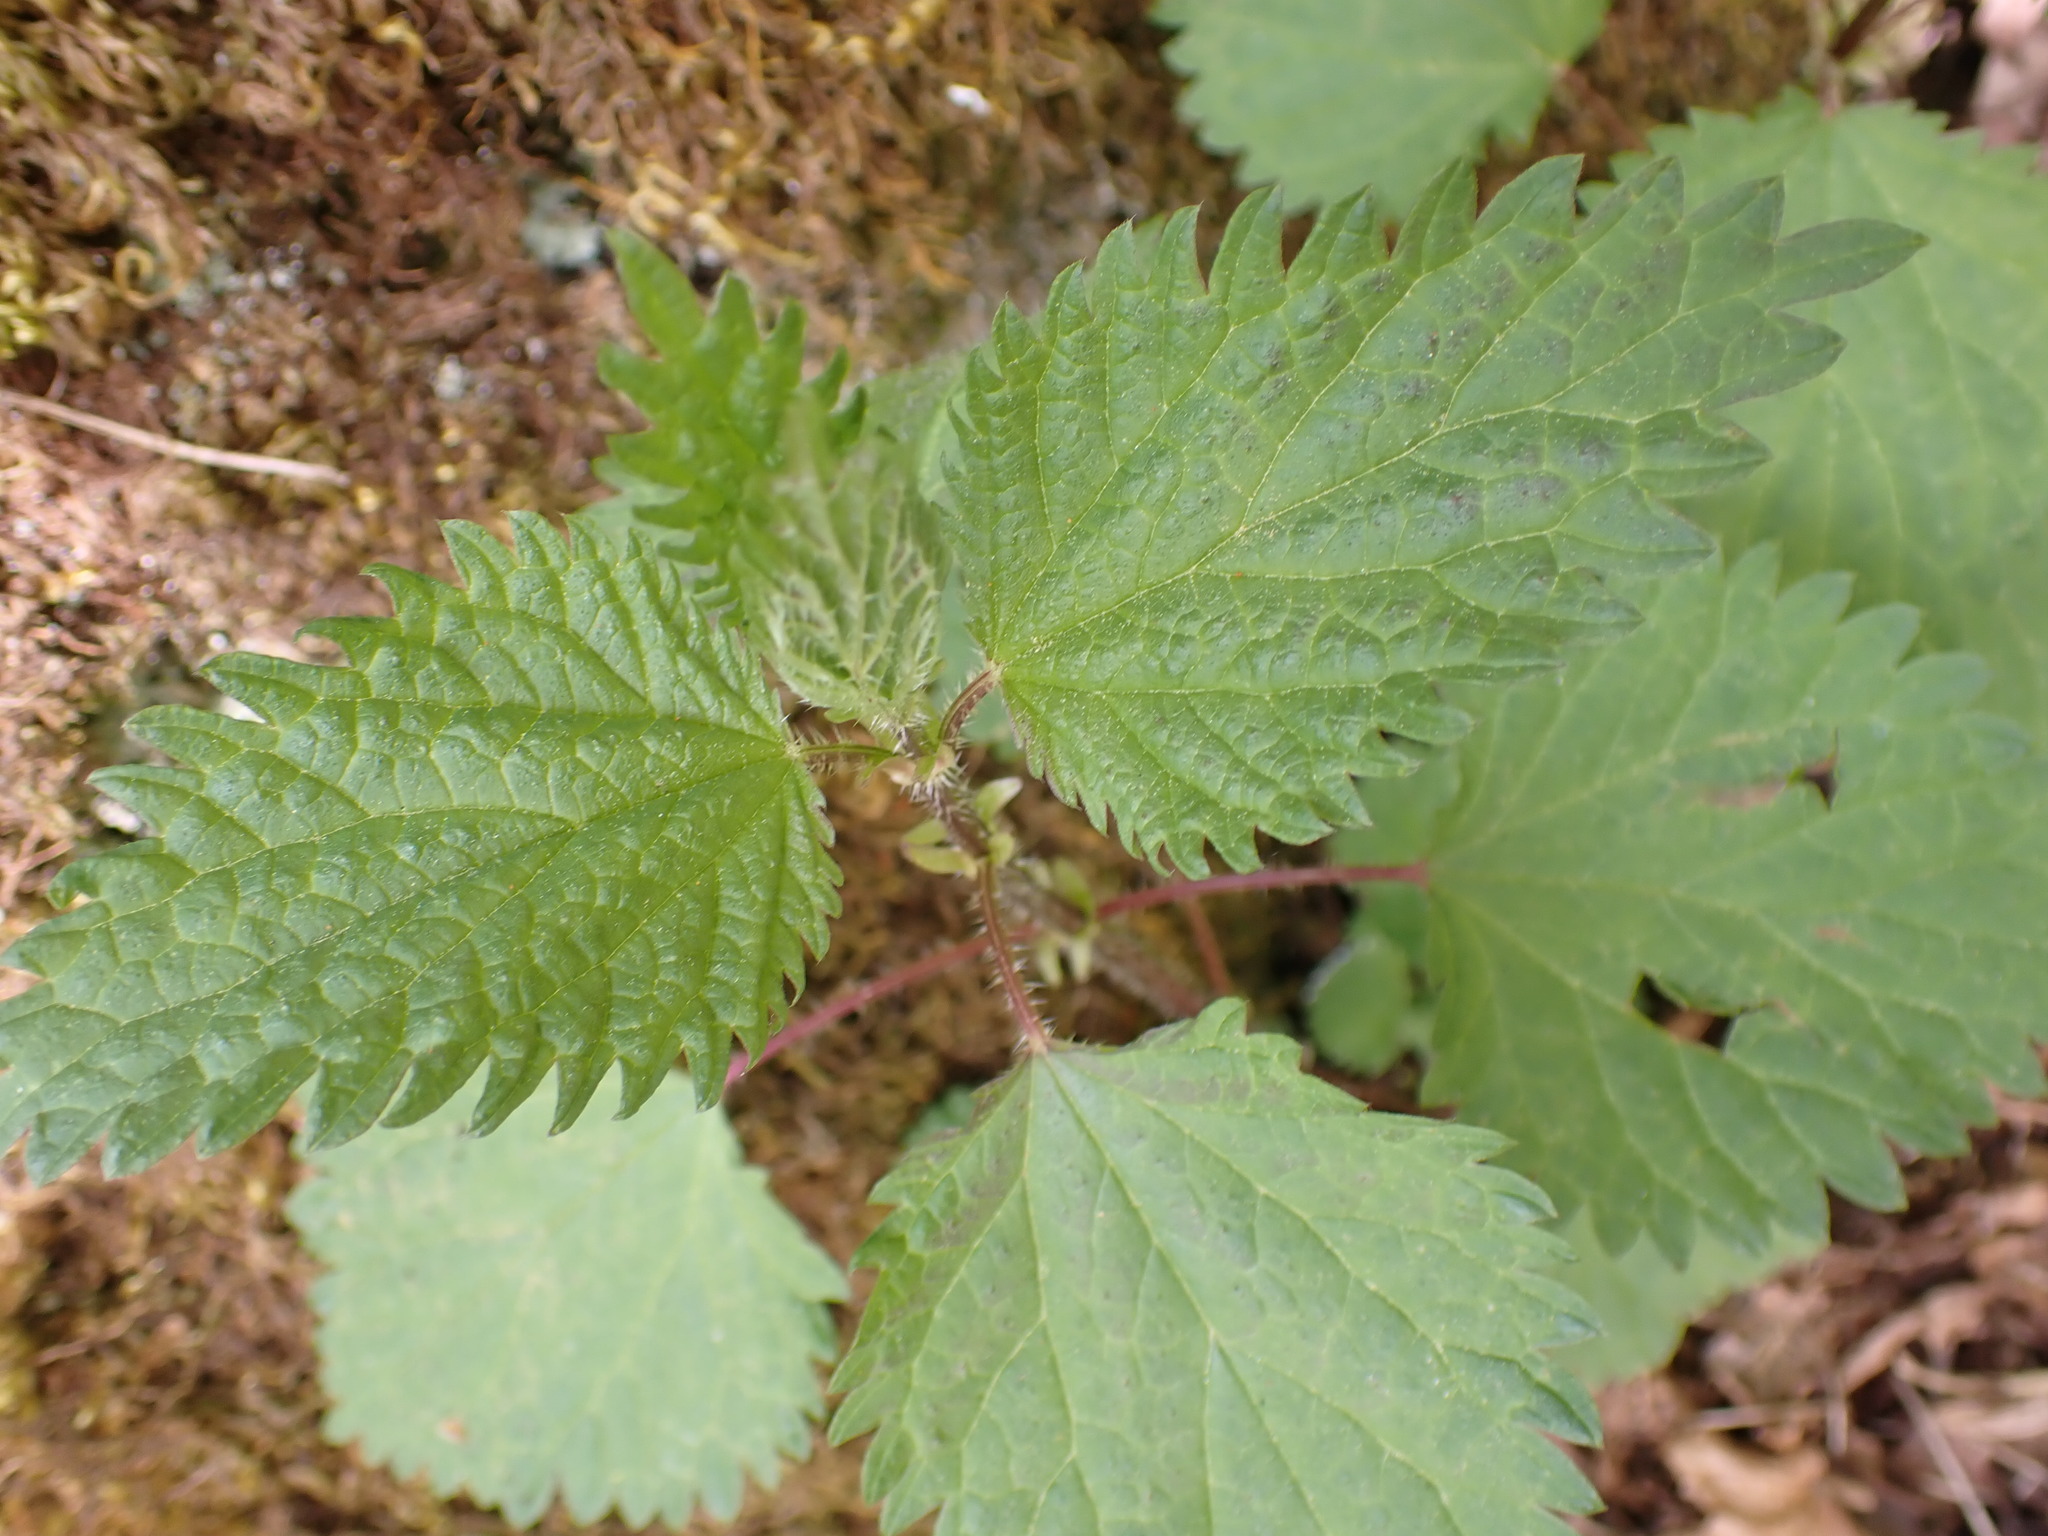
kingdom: Plantae
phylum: Tracheophyta
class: Magnoliopsida
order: Rosales
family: Urticaceae
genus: Urtica
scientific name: Urtica dioica
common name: Common nettle
